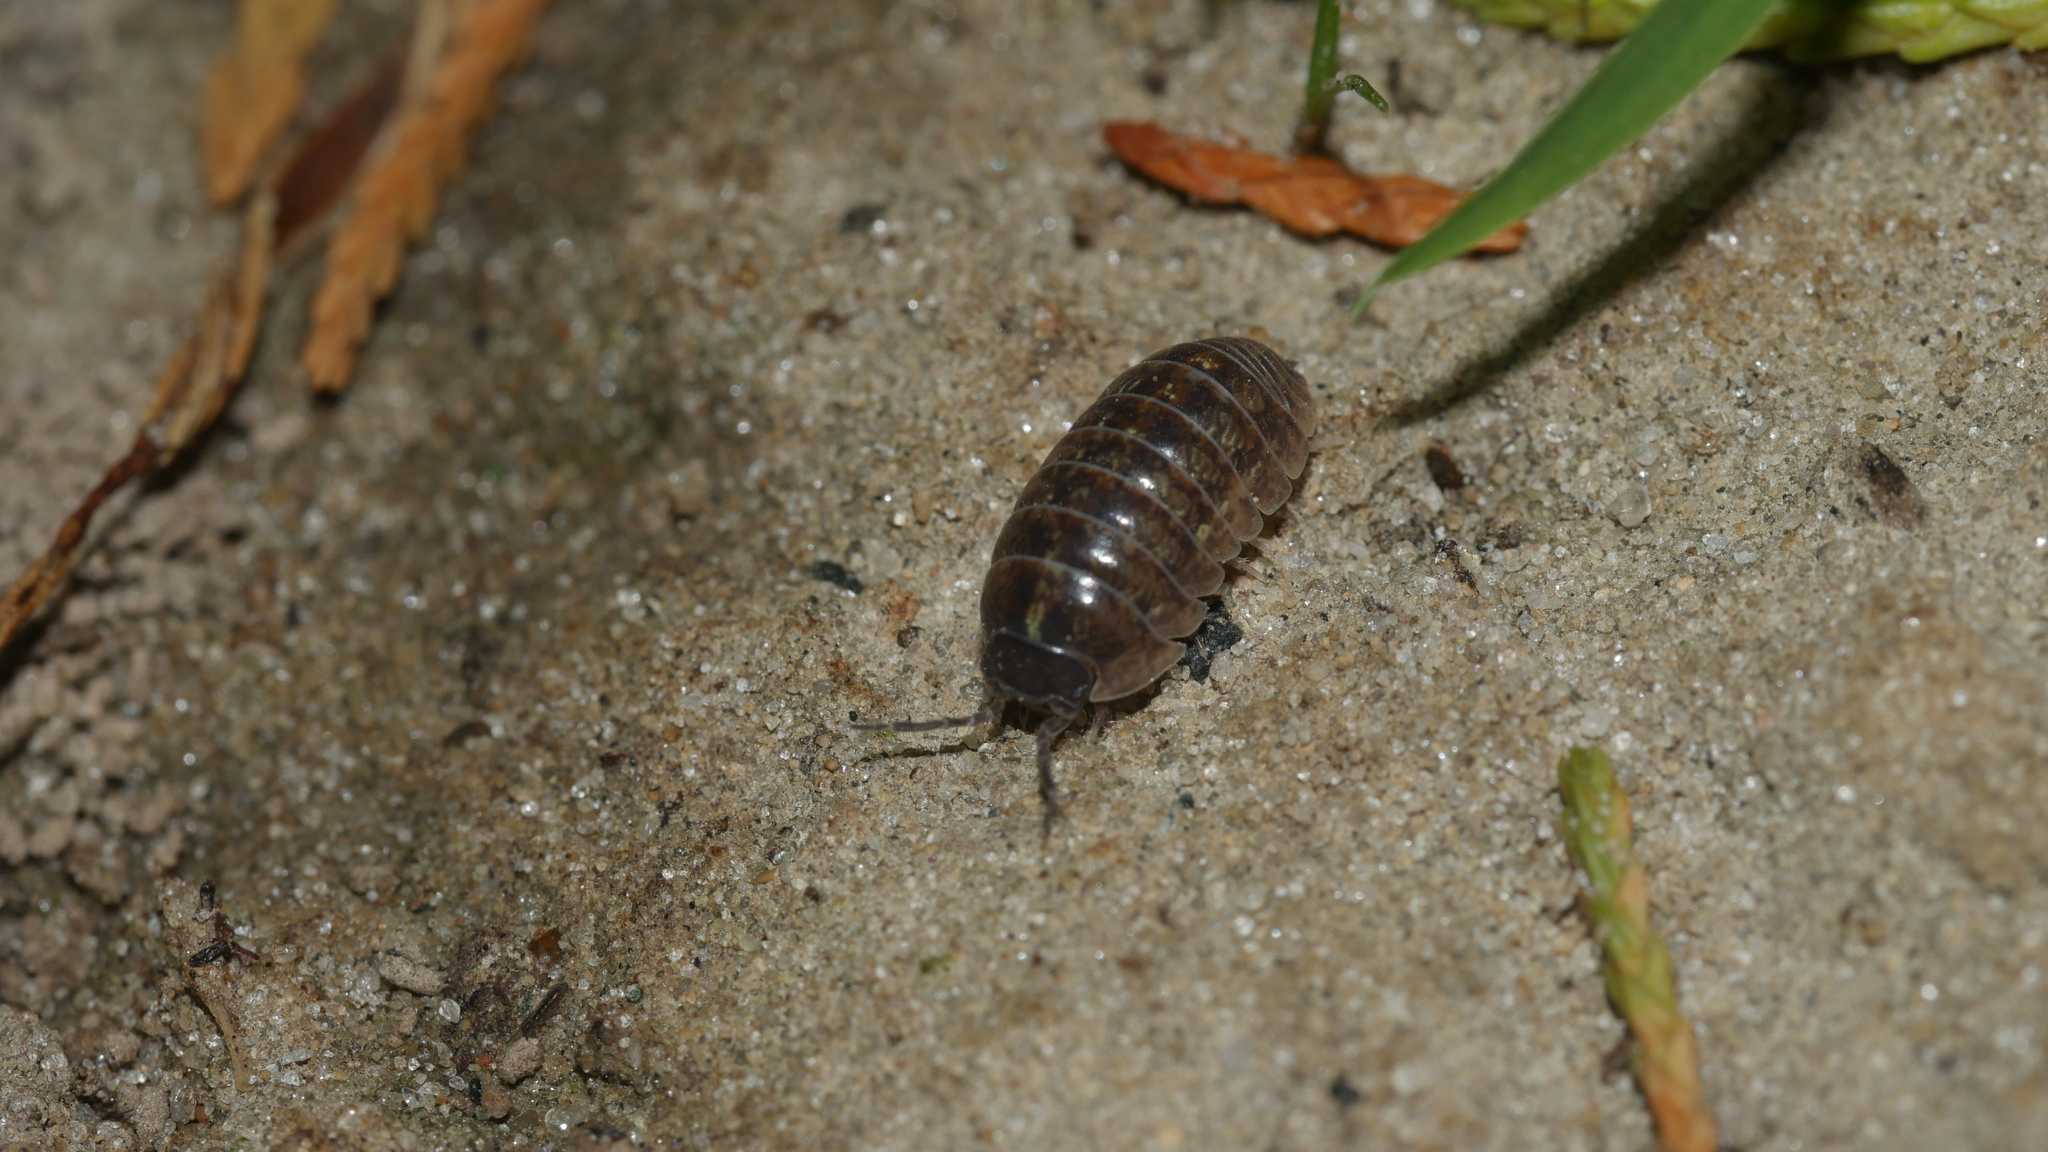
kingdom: Animalia
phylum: Arthropoda
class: Malacostraca
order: Isopoda
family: Armadillidiidae
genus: Armadillidium
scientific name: Armadillidium vulgare
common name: Common pill woodlouse
